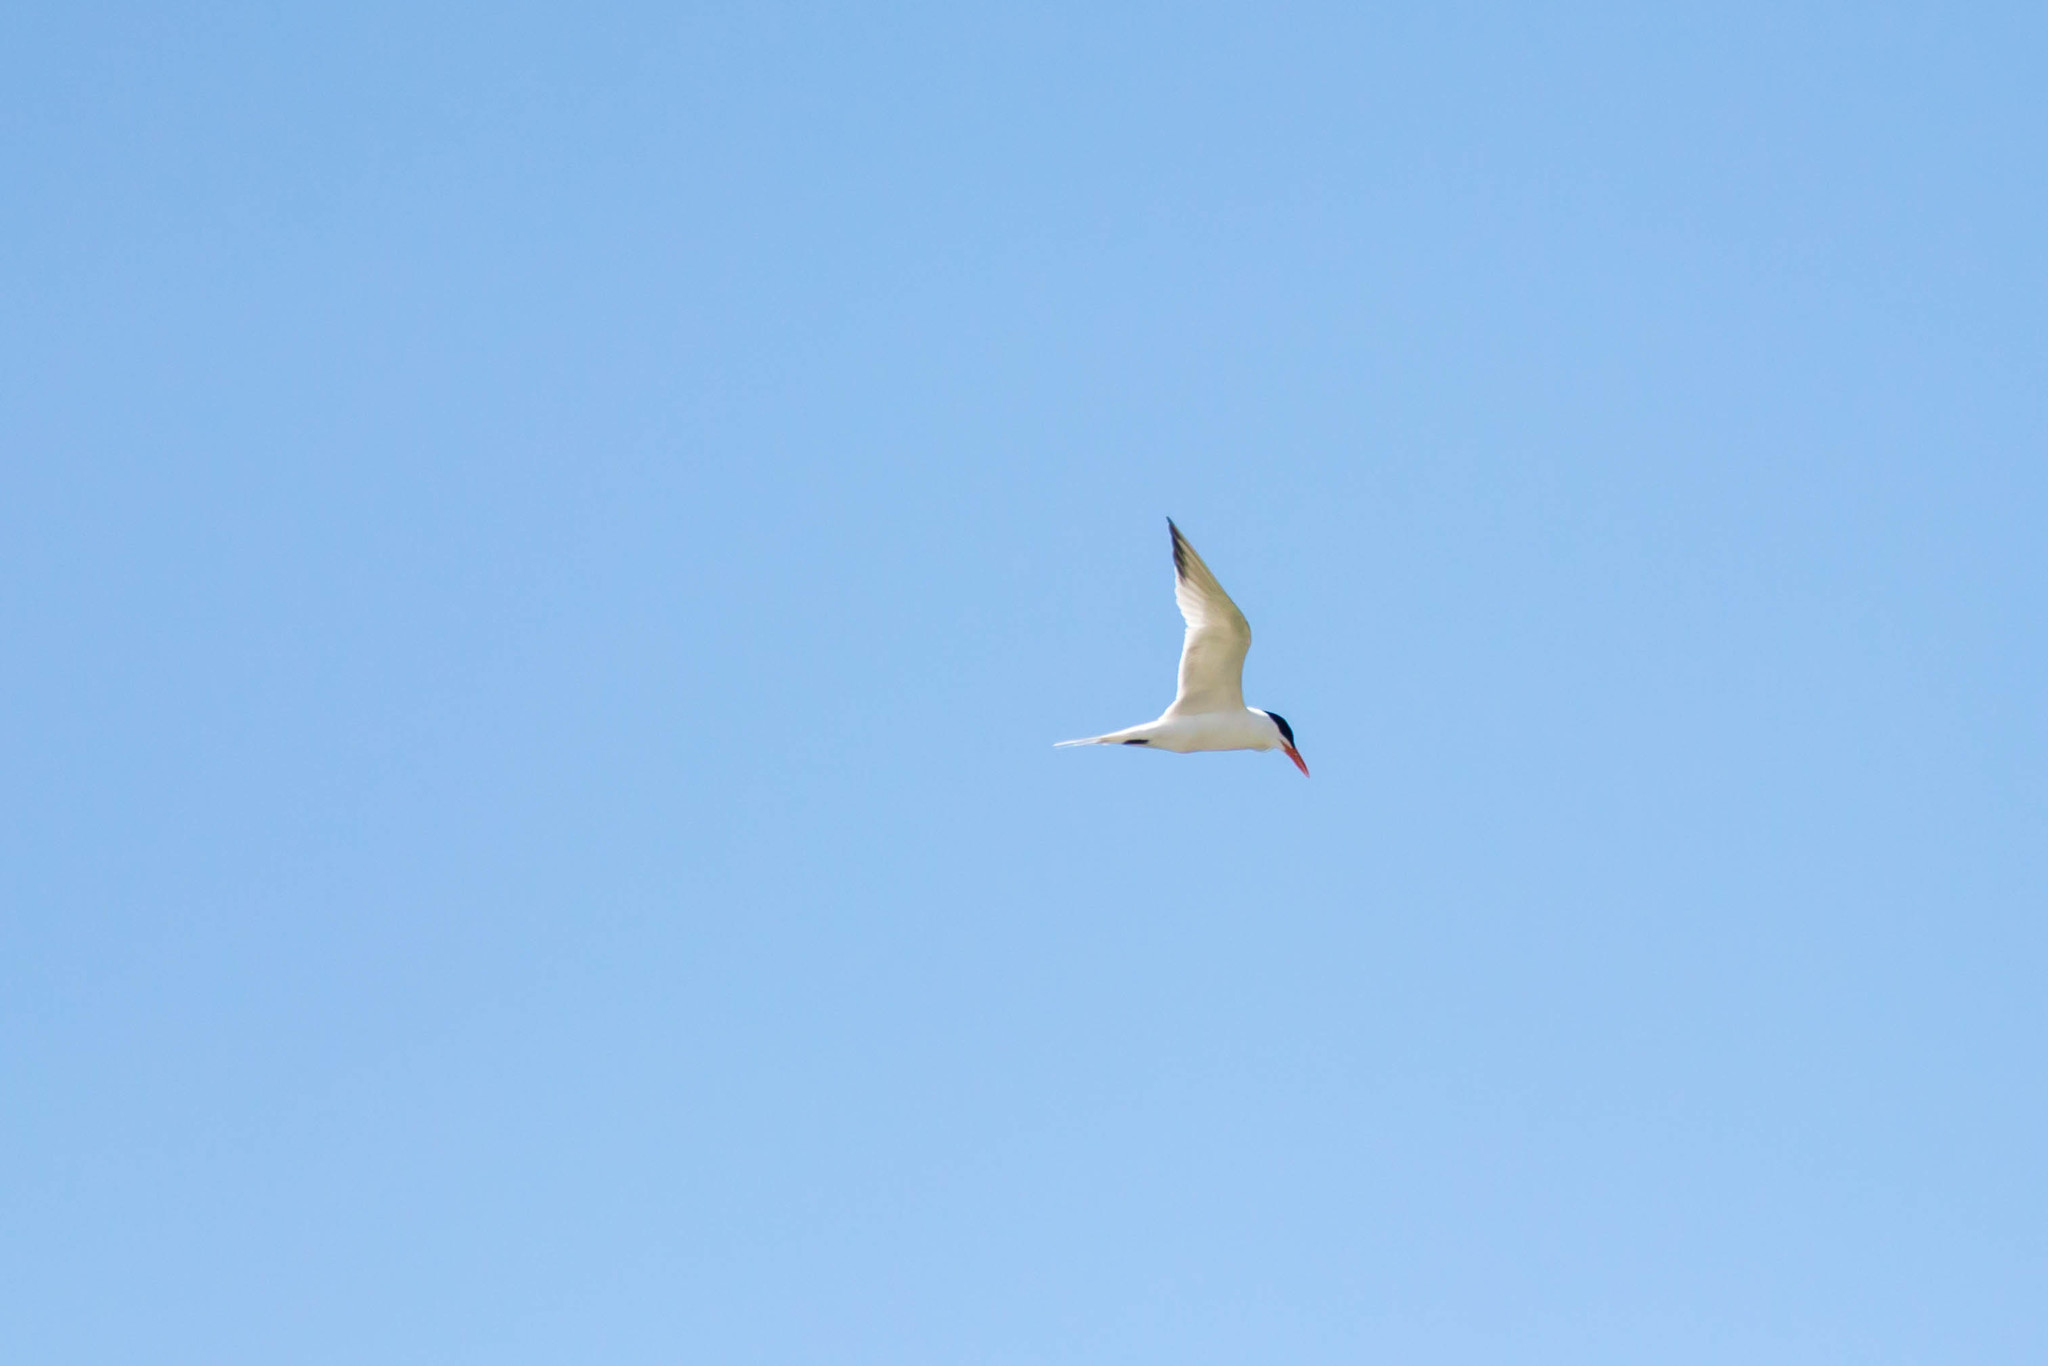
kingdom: Animalia
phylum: Chordata
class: Aves
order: Charadriiformes
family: Laridae
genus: Thalasseus
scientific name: Thalasseus maximus
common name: Royal tern
